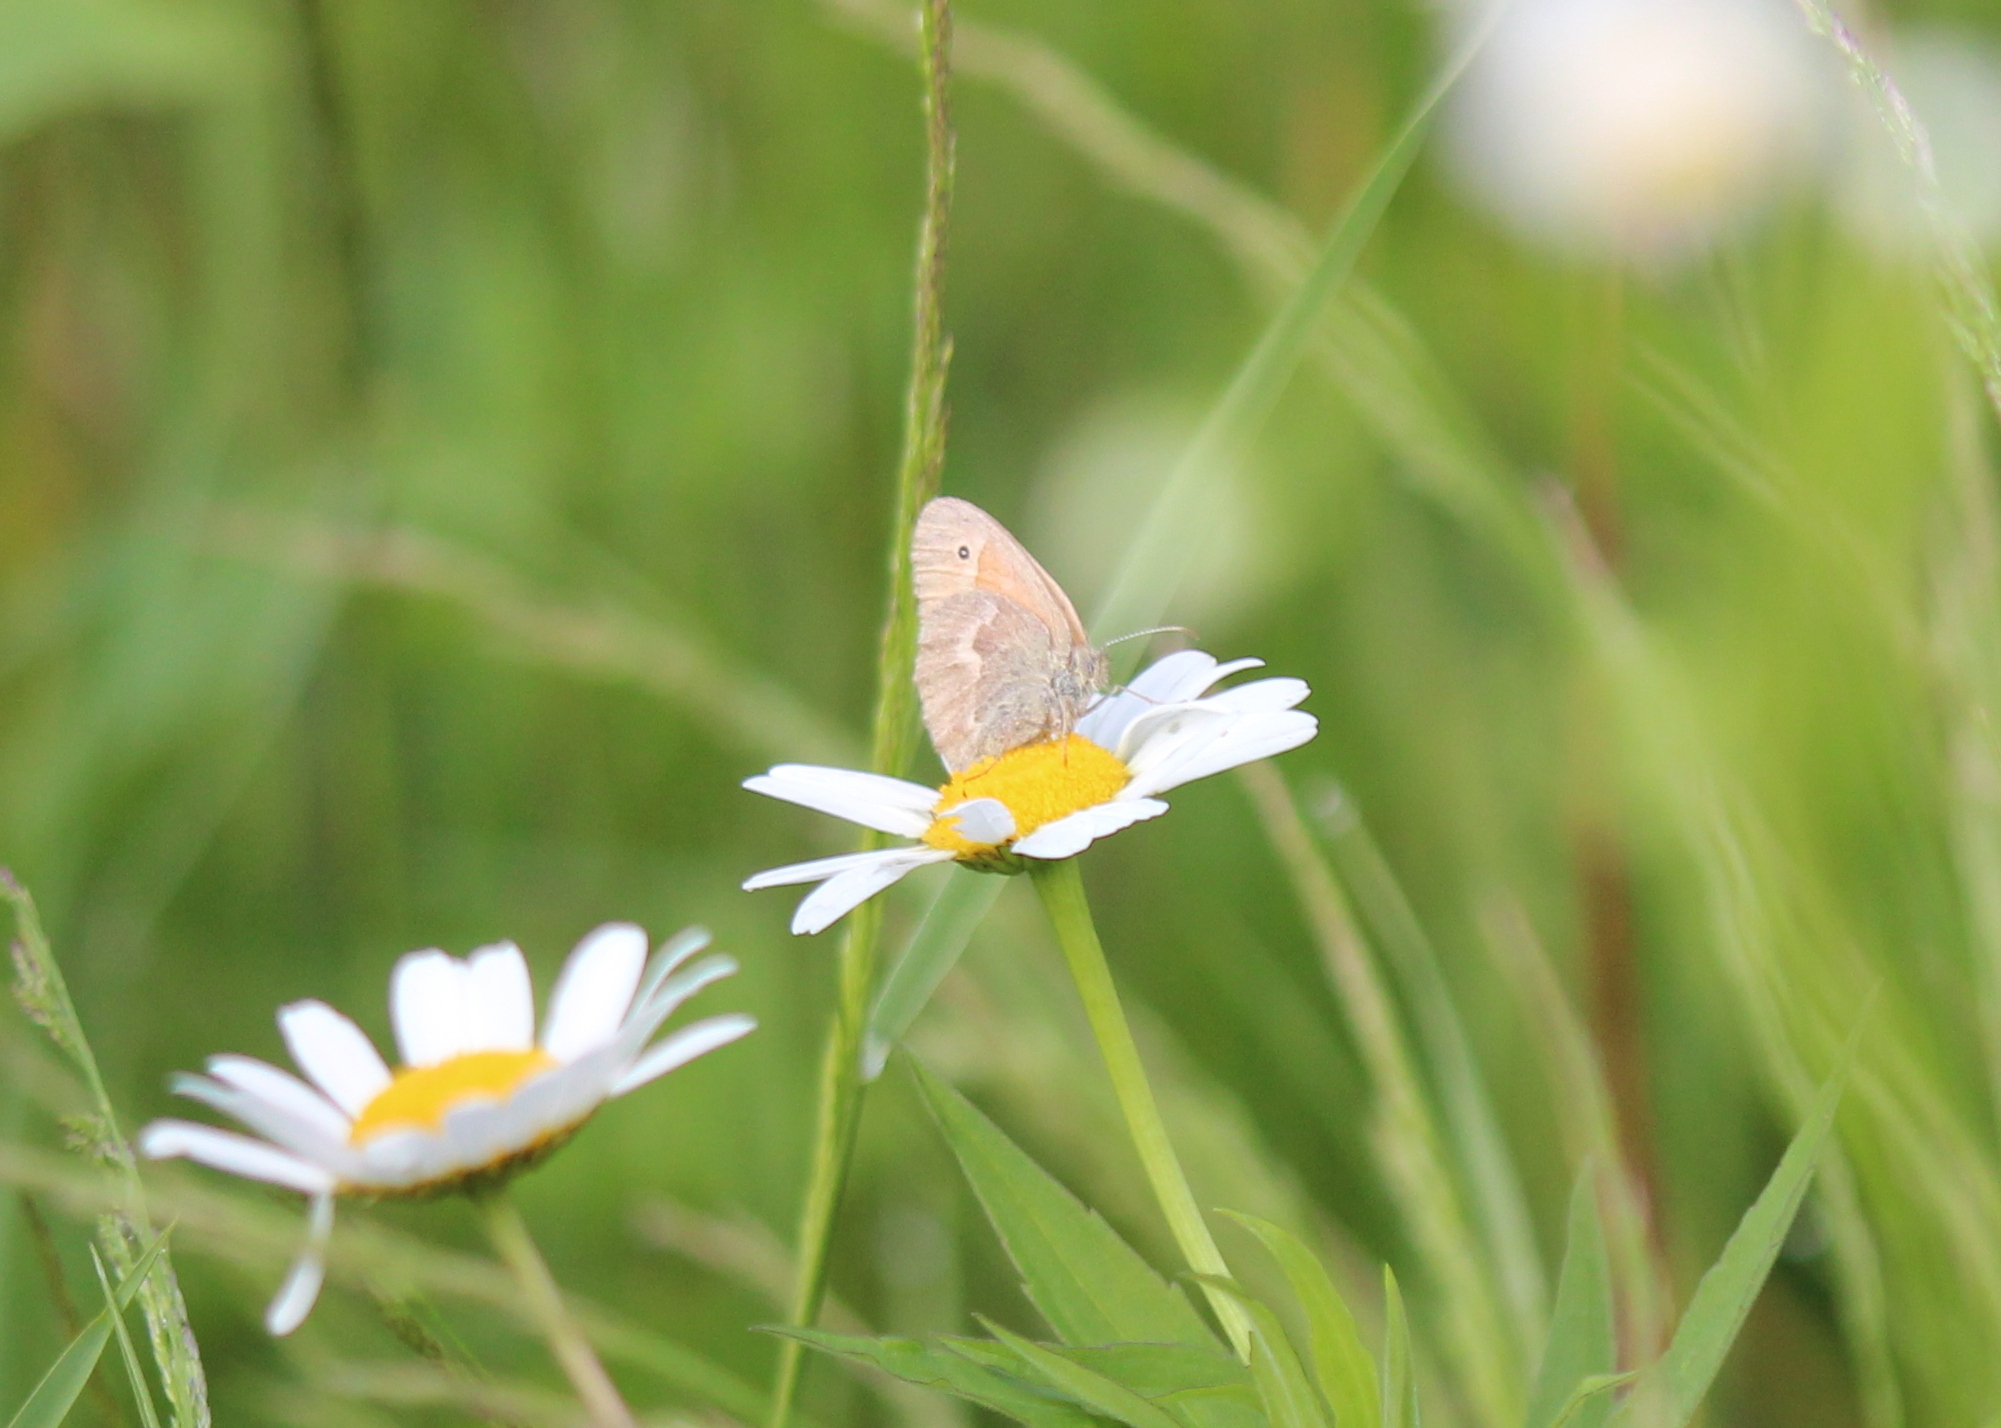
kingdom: Animalia
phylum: Arthropoda
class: Insecta
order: Lepidoptera
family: Nymphalidae
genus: Coenonympha
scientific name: Coenonympha california
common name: Common ringlet
